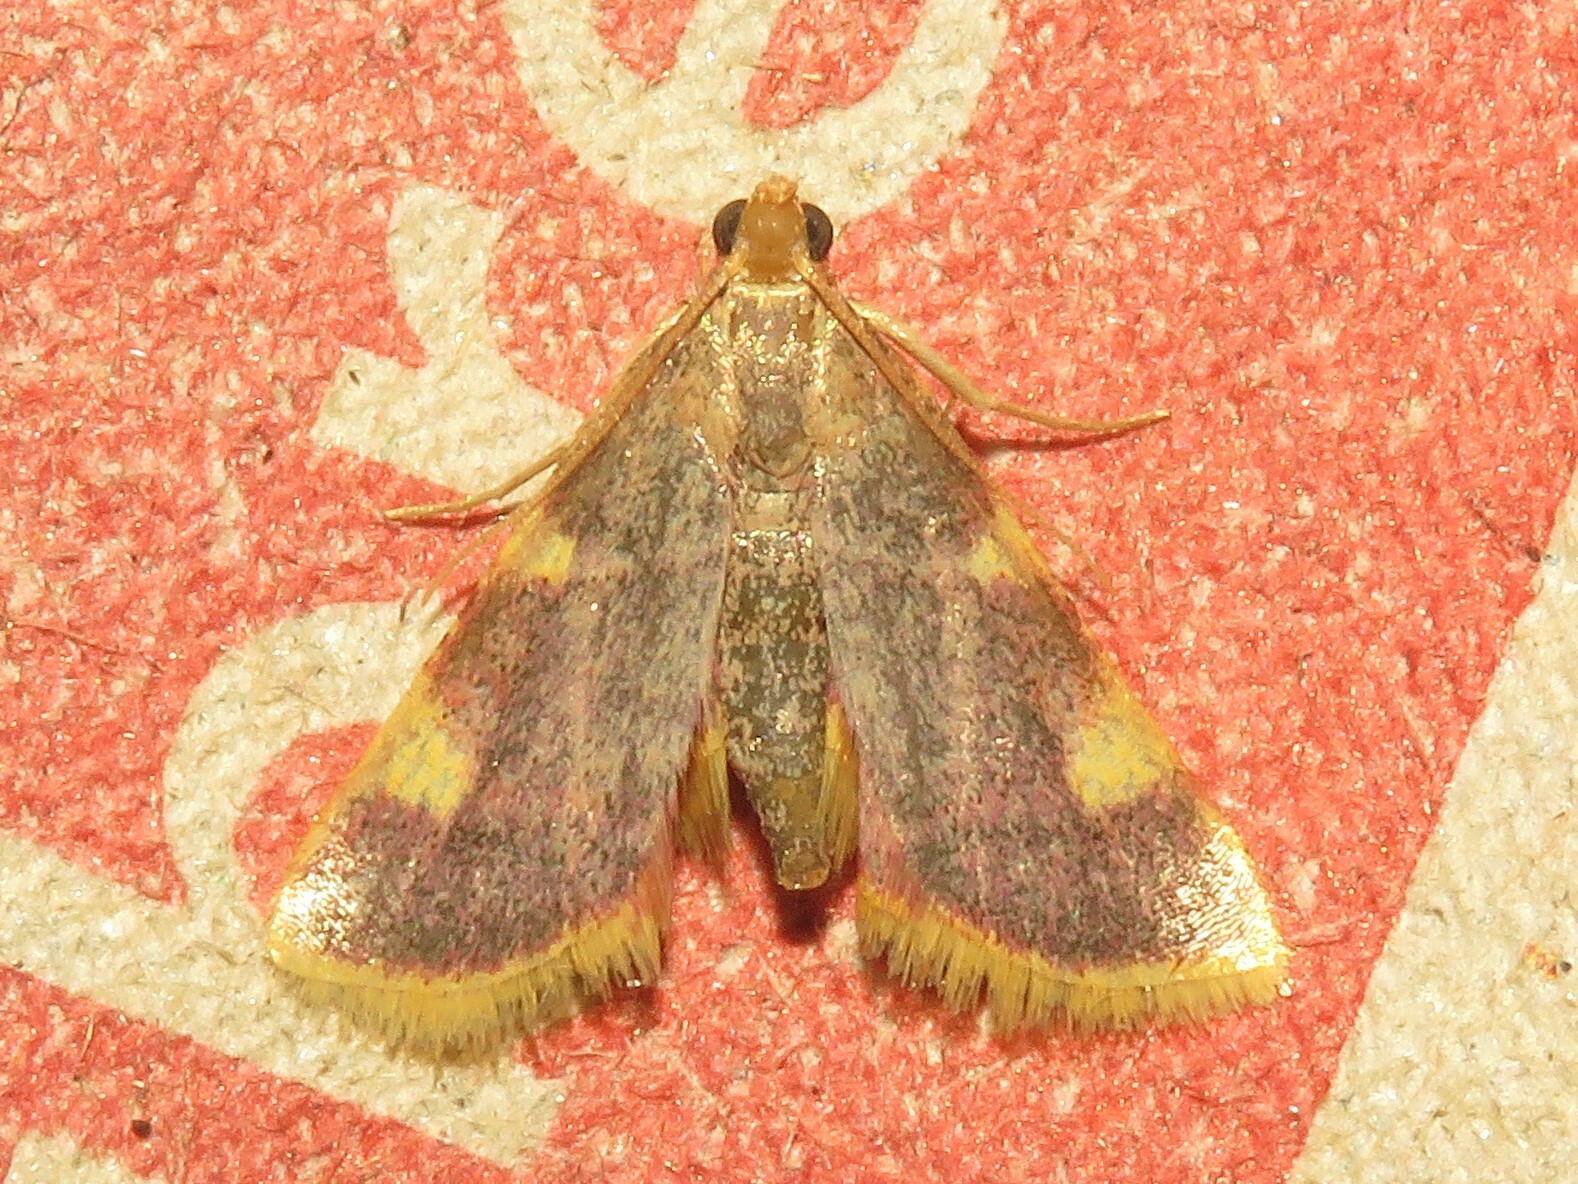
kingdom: Animalia
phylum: Arthropoda
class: Insecta
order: Lepidoptera
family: Pyralidae
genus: Hypsopygia
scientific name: Hypsopygia costalis
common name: Gold triangle
